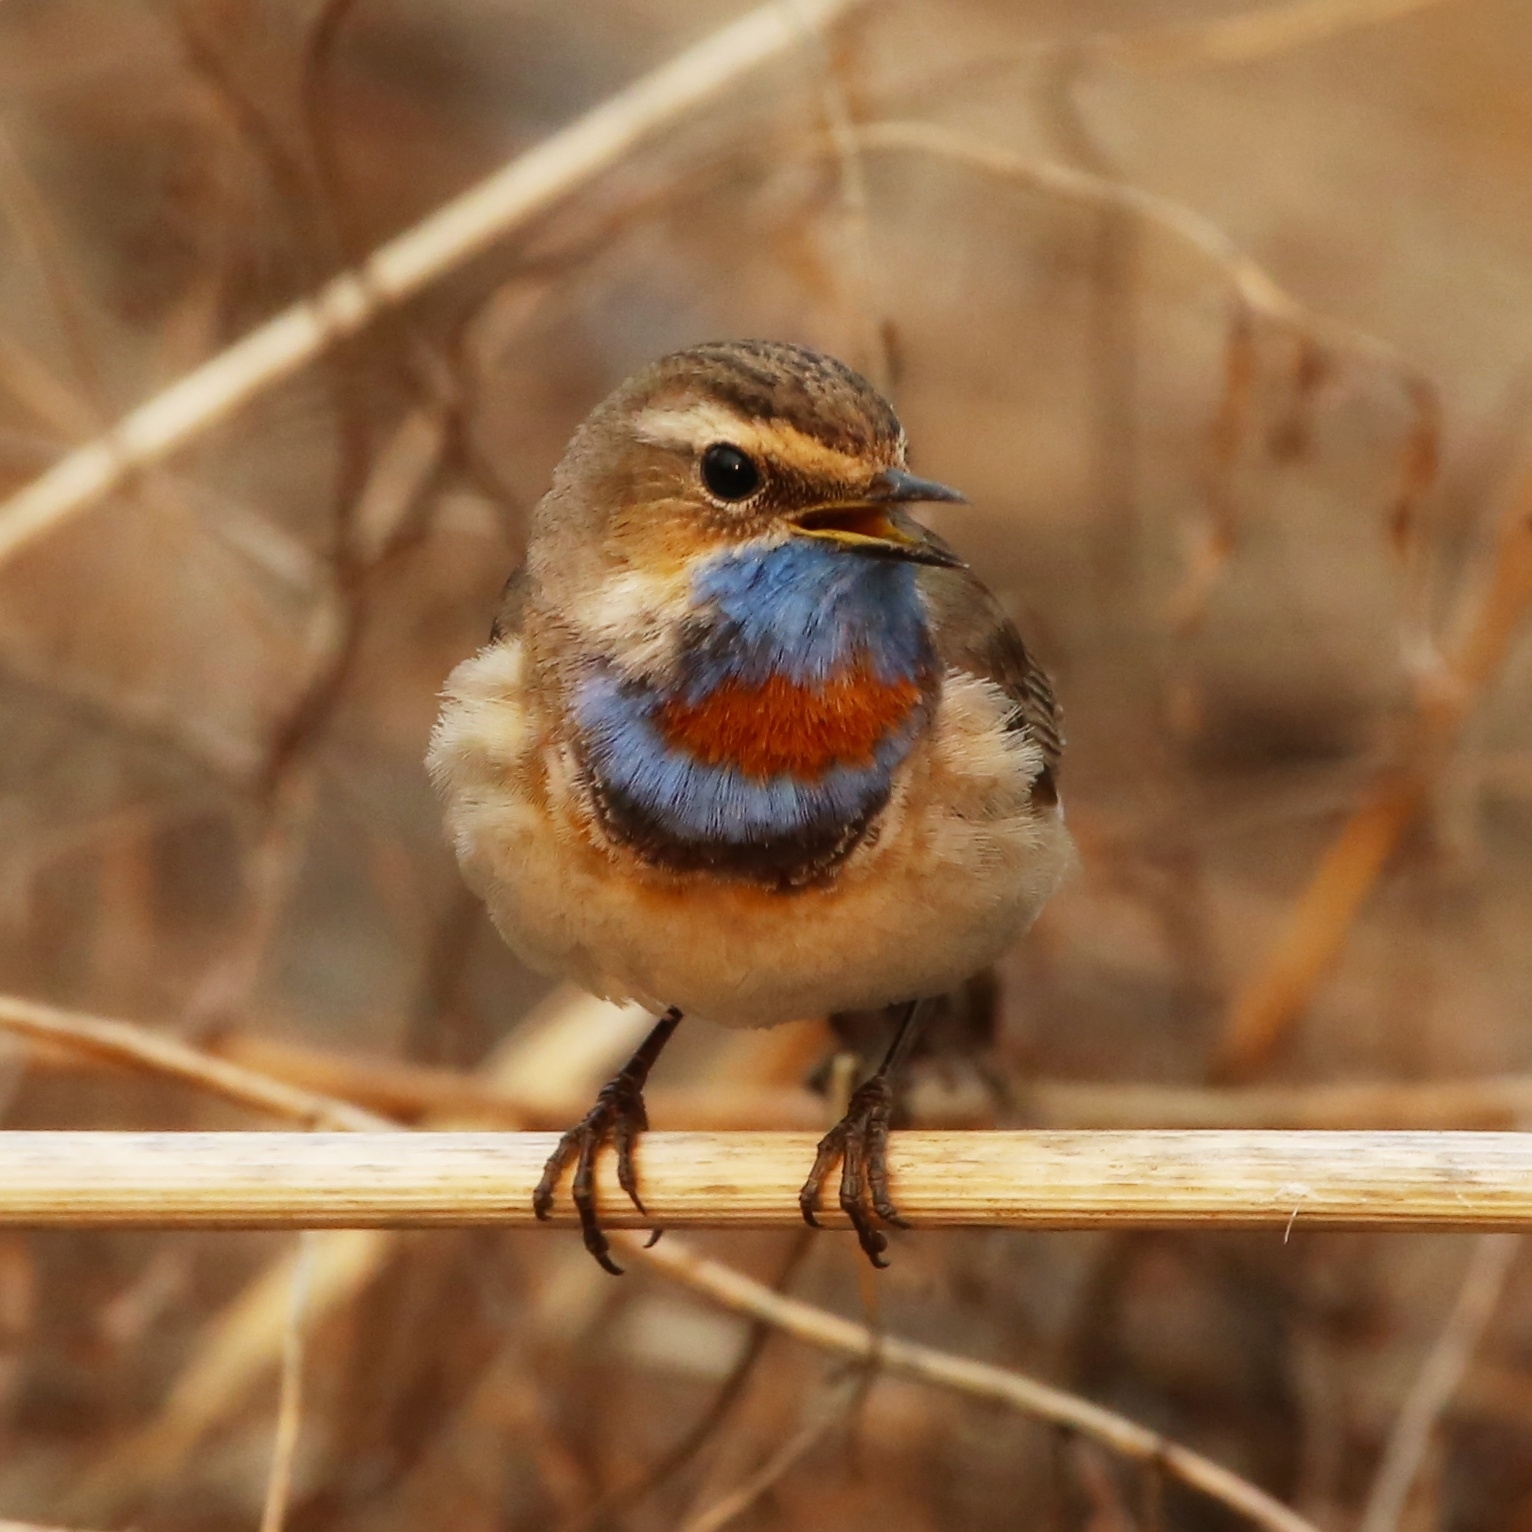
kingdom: Animalia
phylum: Chordata
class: Aves
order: Passeriformes
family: Muscicapidae
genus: Luscinia
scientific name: Luscinia svecica
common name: Bluethroat
